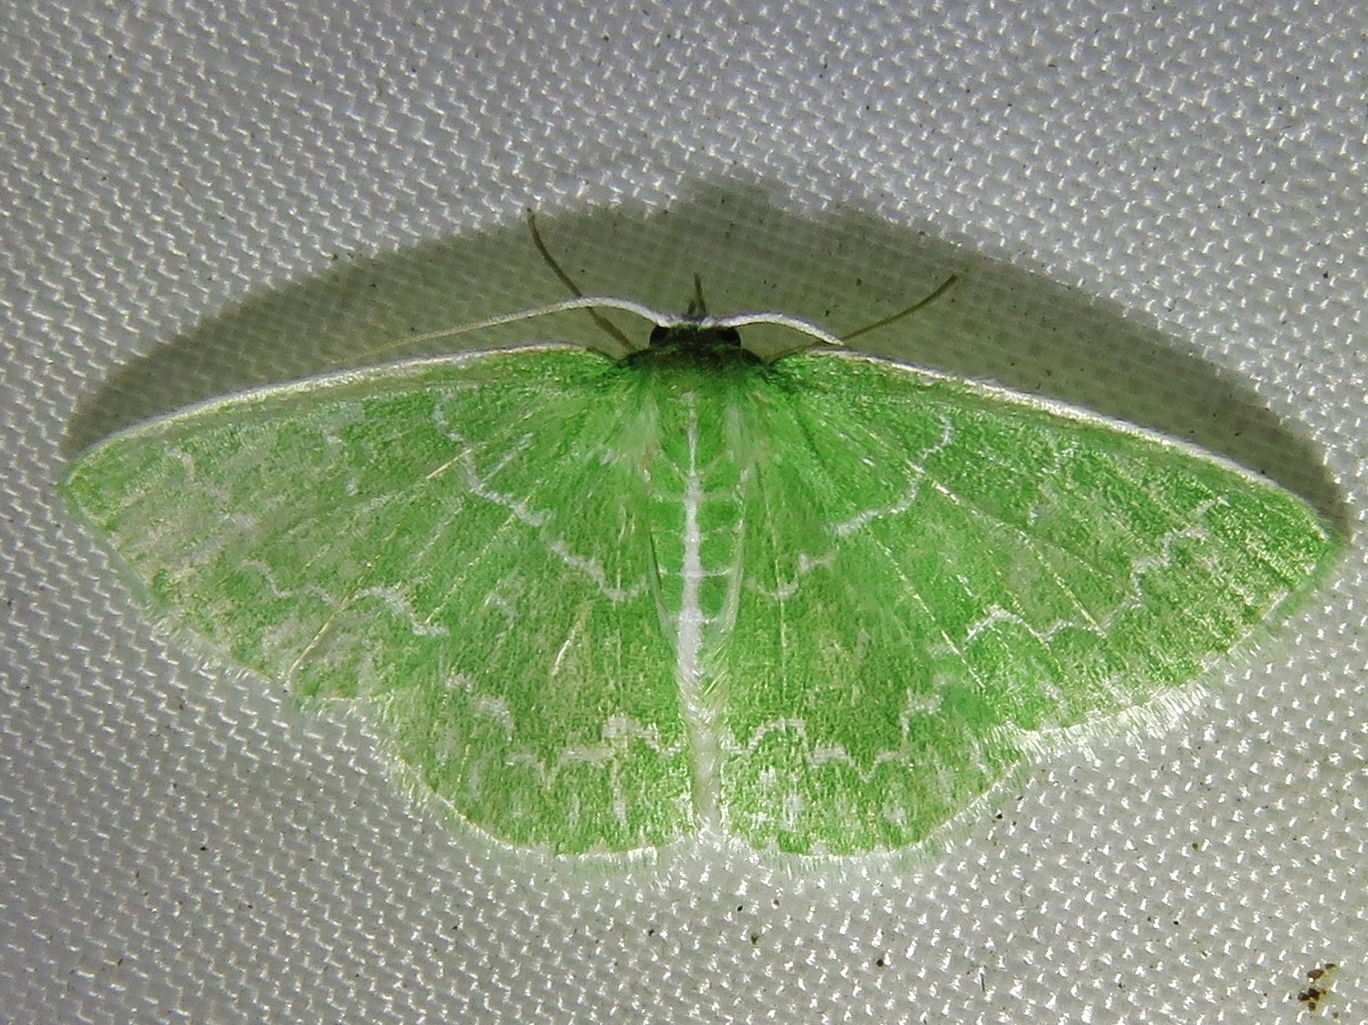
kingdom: Animalia
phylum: Arthropoda
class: Insecta
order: Lepidoptera
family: Geometridae
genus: Synchlora
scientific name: Synchlora frondaria
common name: Southern emerald
